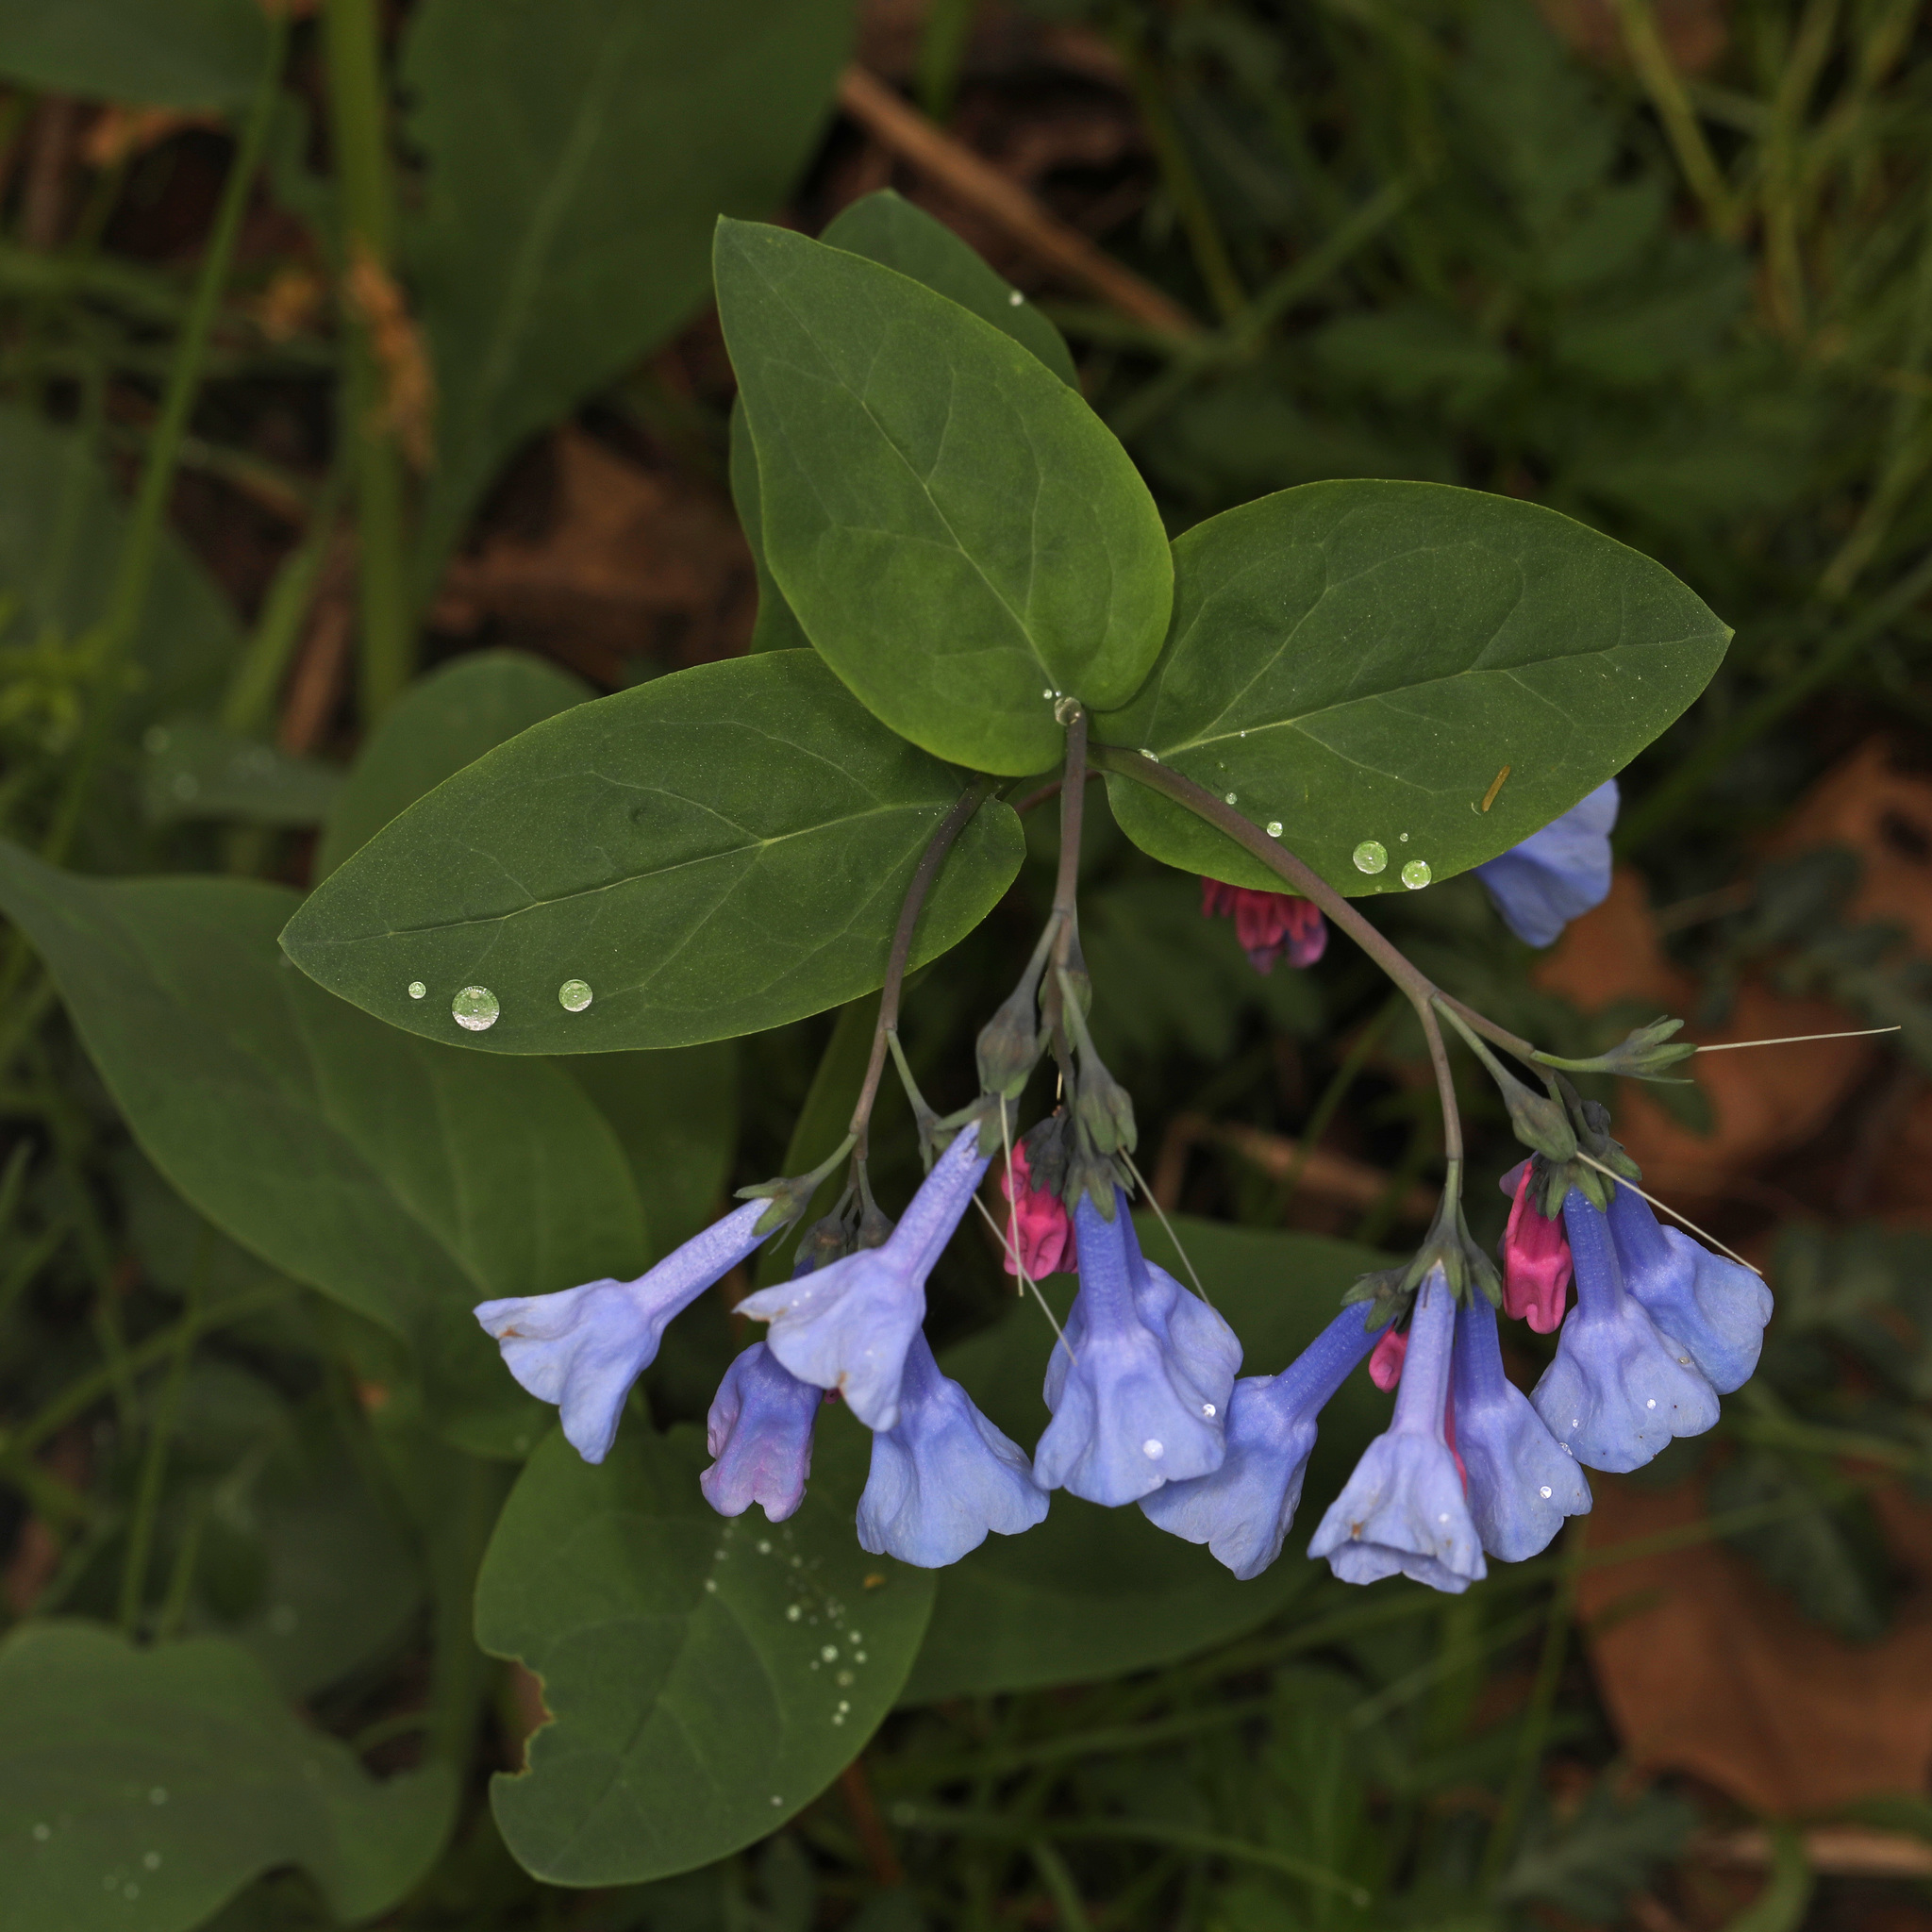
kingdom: Plantae
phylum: Tracheophyta
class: Magnoliopsida
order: Boraginales
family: Boraginaceae
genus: Mertensia
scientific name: Mertensia virginica
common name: Virginia bluebells
